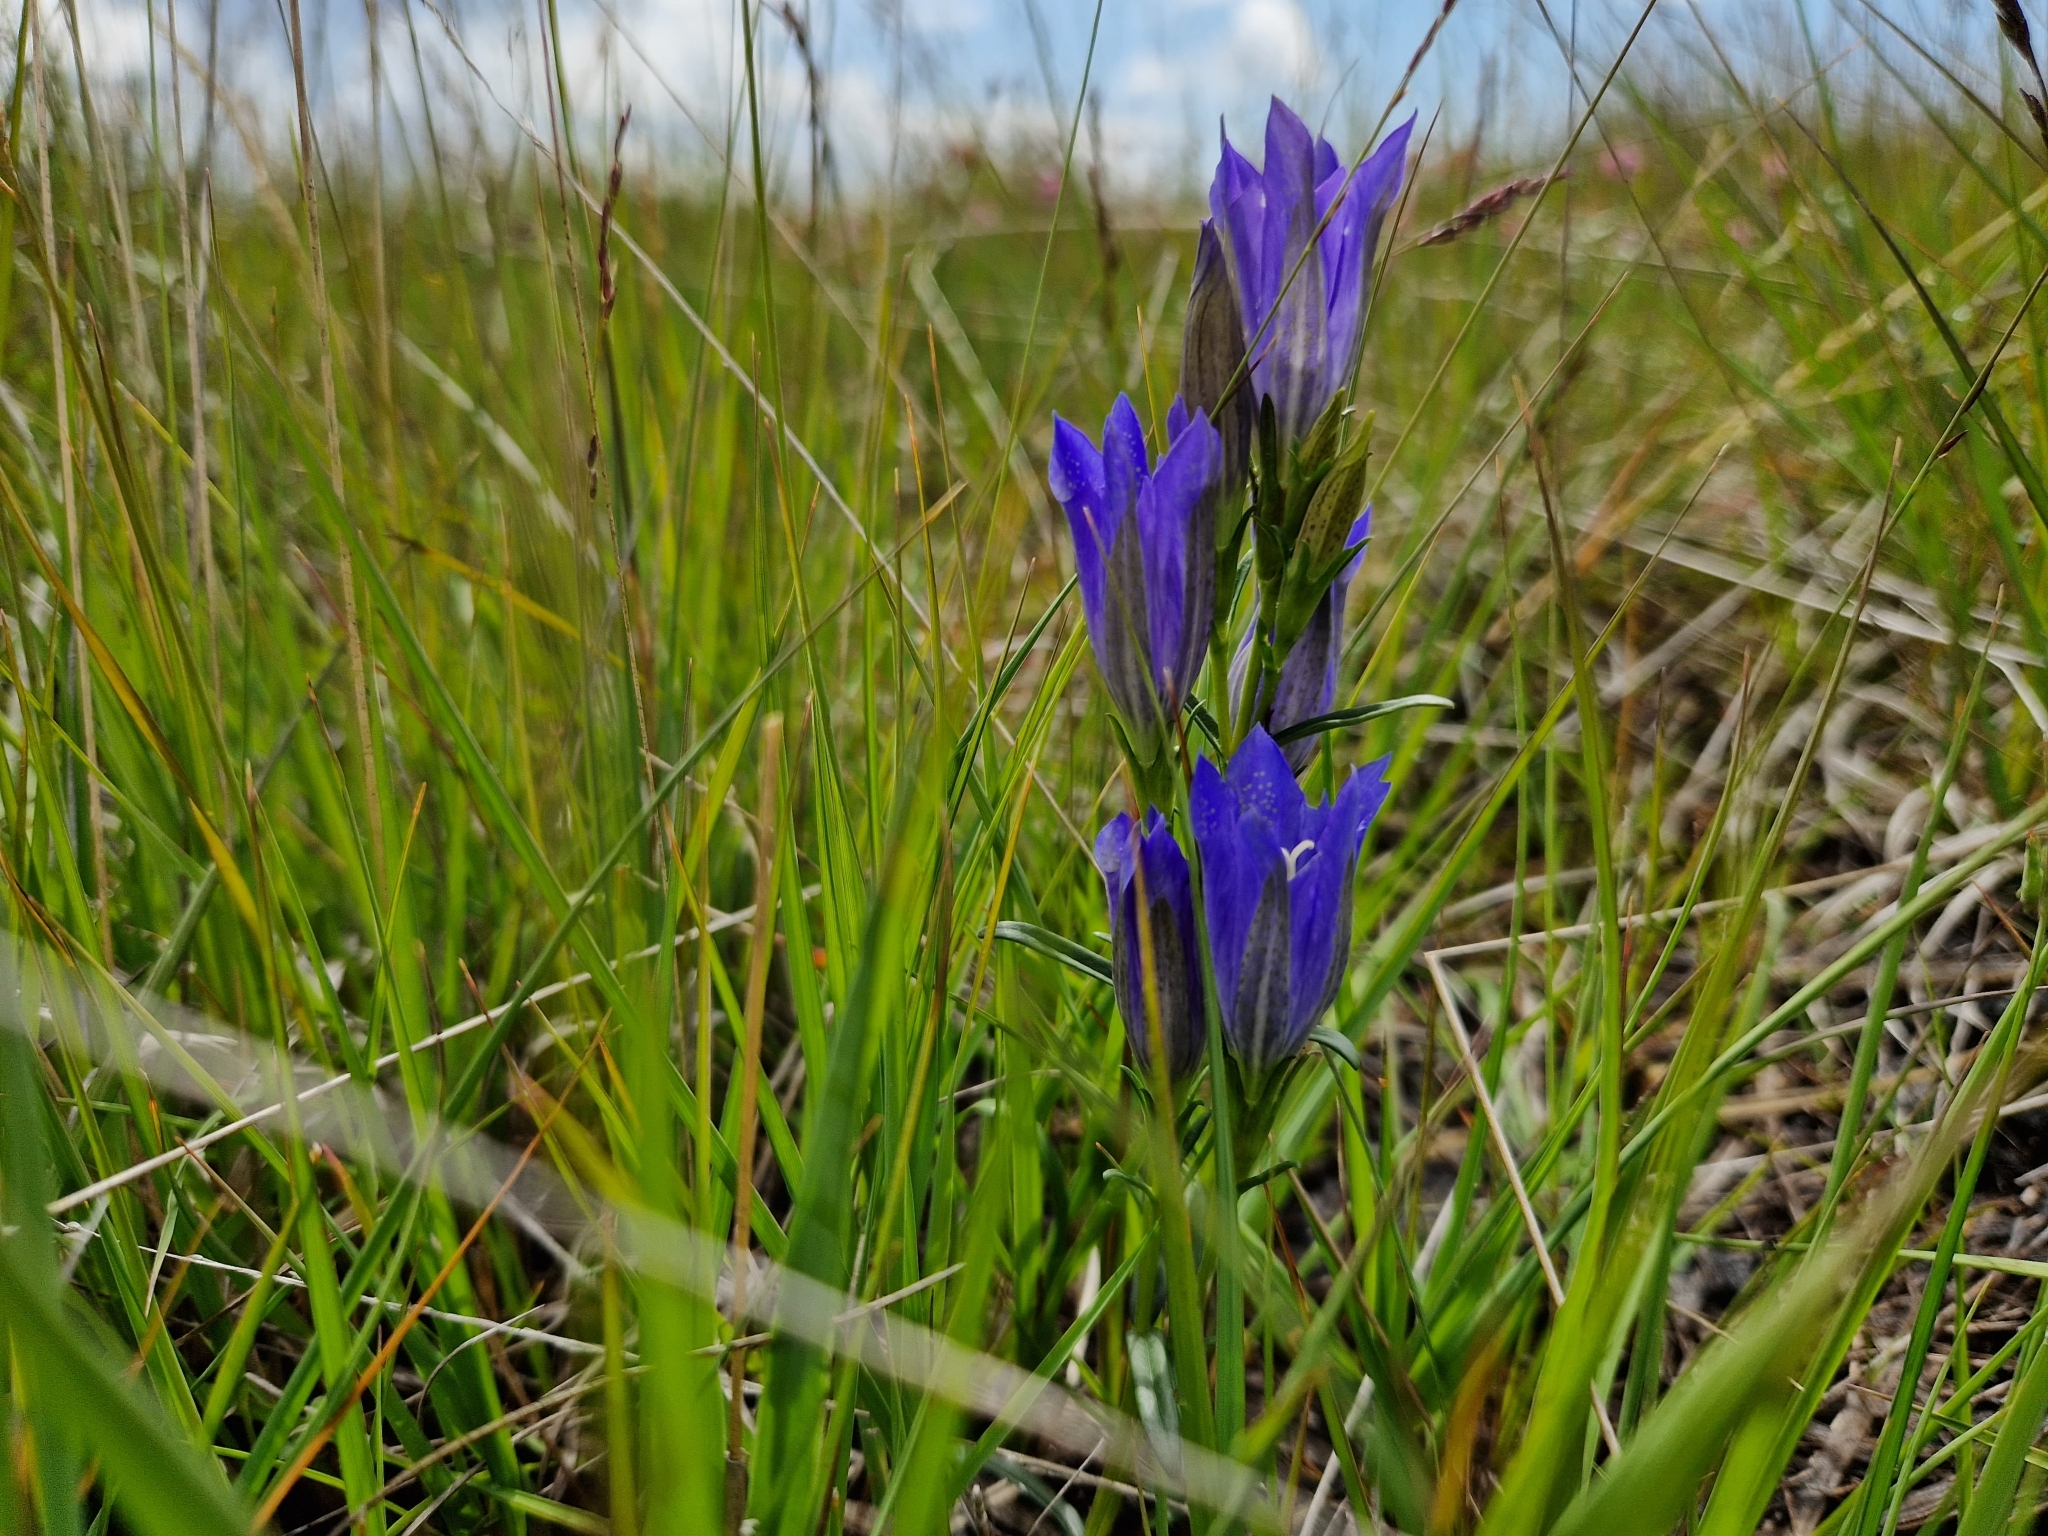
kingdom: Plantae
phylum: Tracheophyta
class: Magnoliopsida
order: Gentianales
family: Gentianaceae
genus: Gentiana
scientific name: Gentiana pneumonanthe
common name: Marsh gentian
